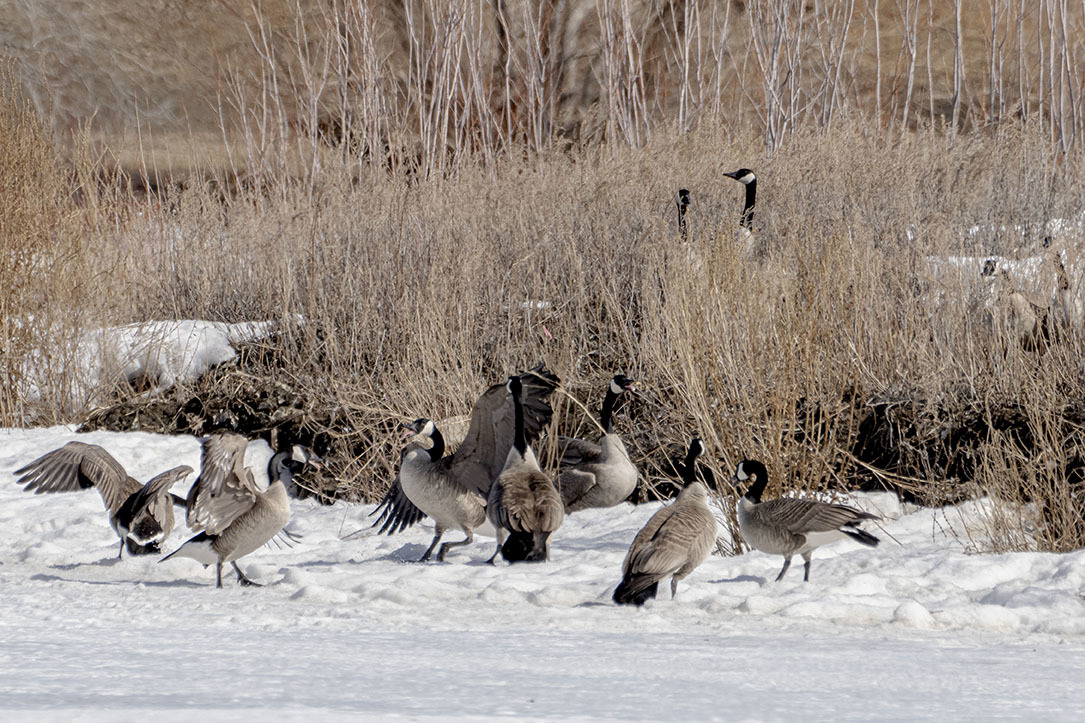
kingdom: Animalia
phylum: Chordata
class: Aves
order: Anseriformes
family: Anatidae
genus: Branta
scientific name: Branta canadensis
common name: Canada goose
